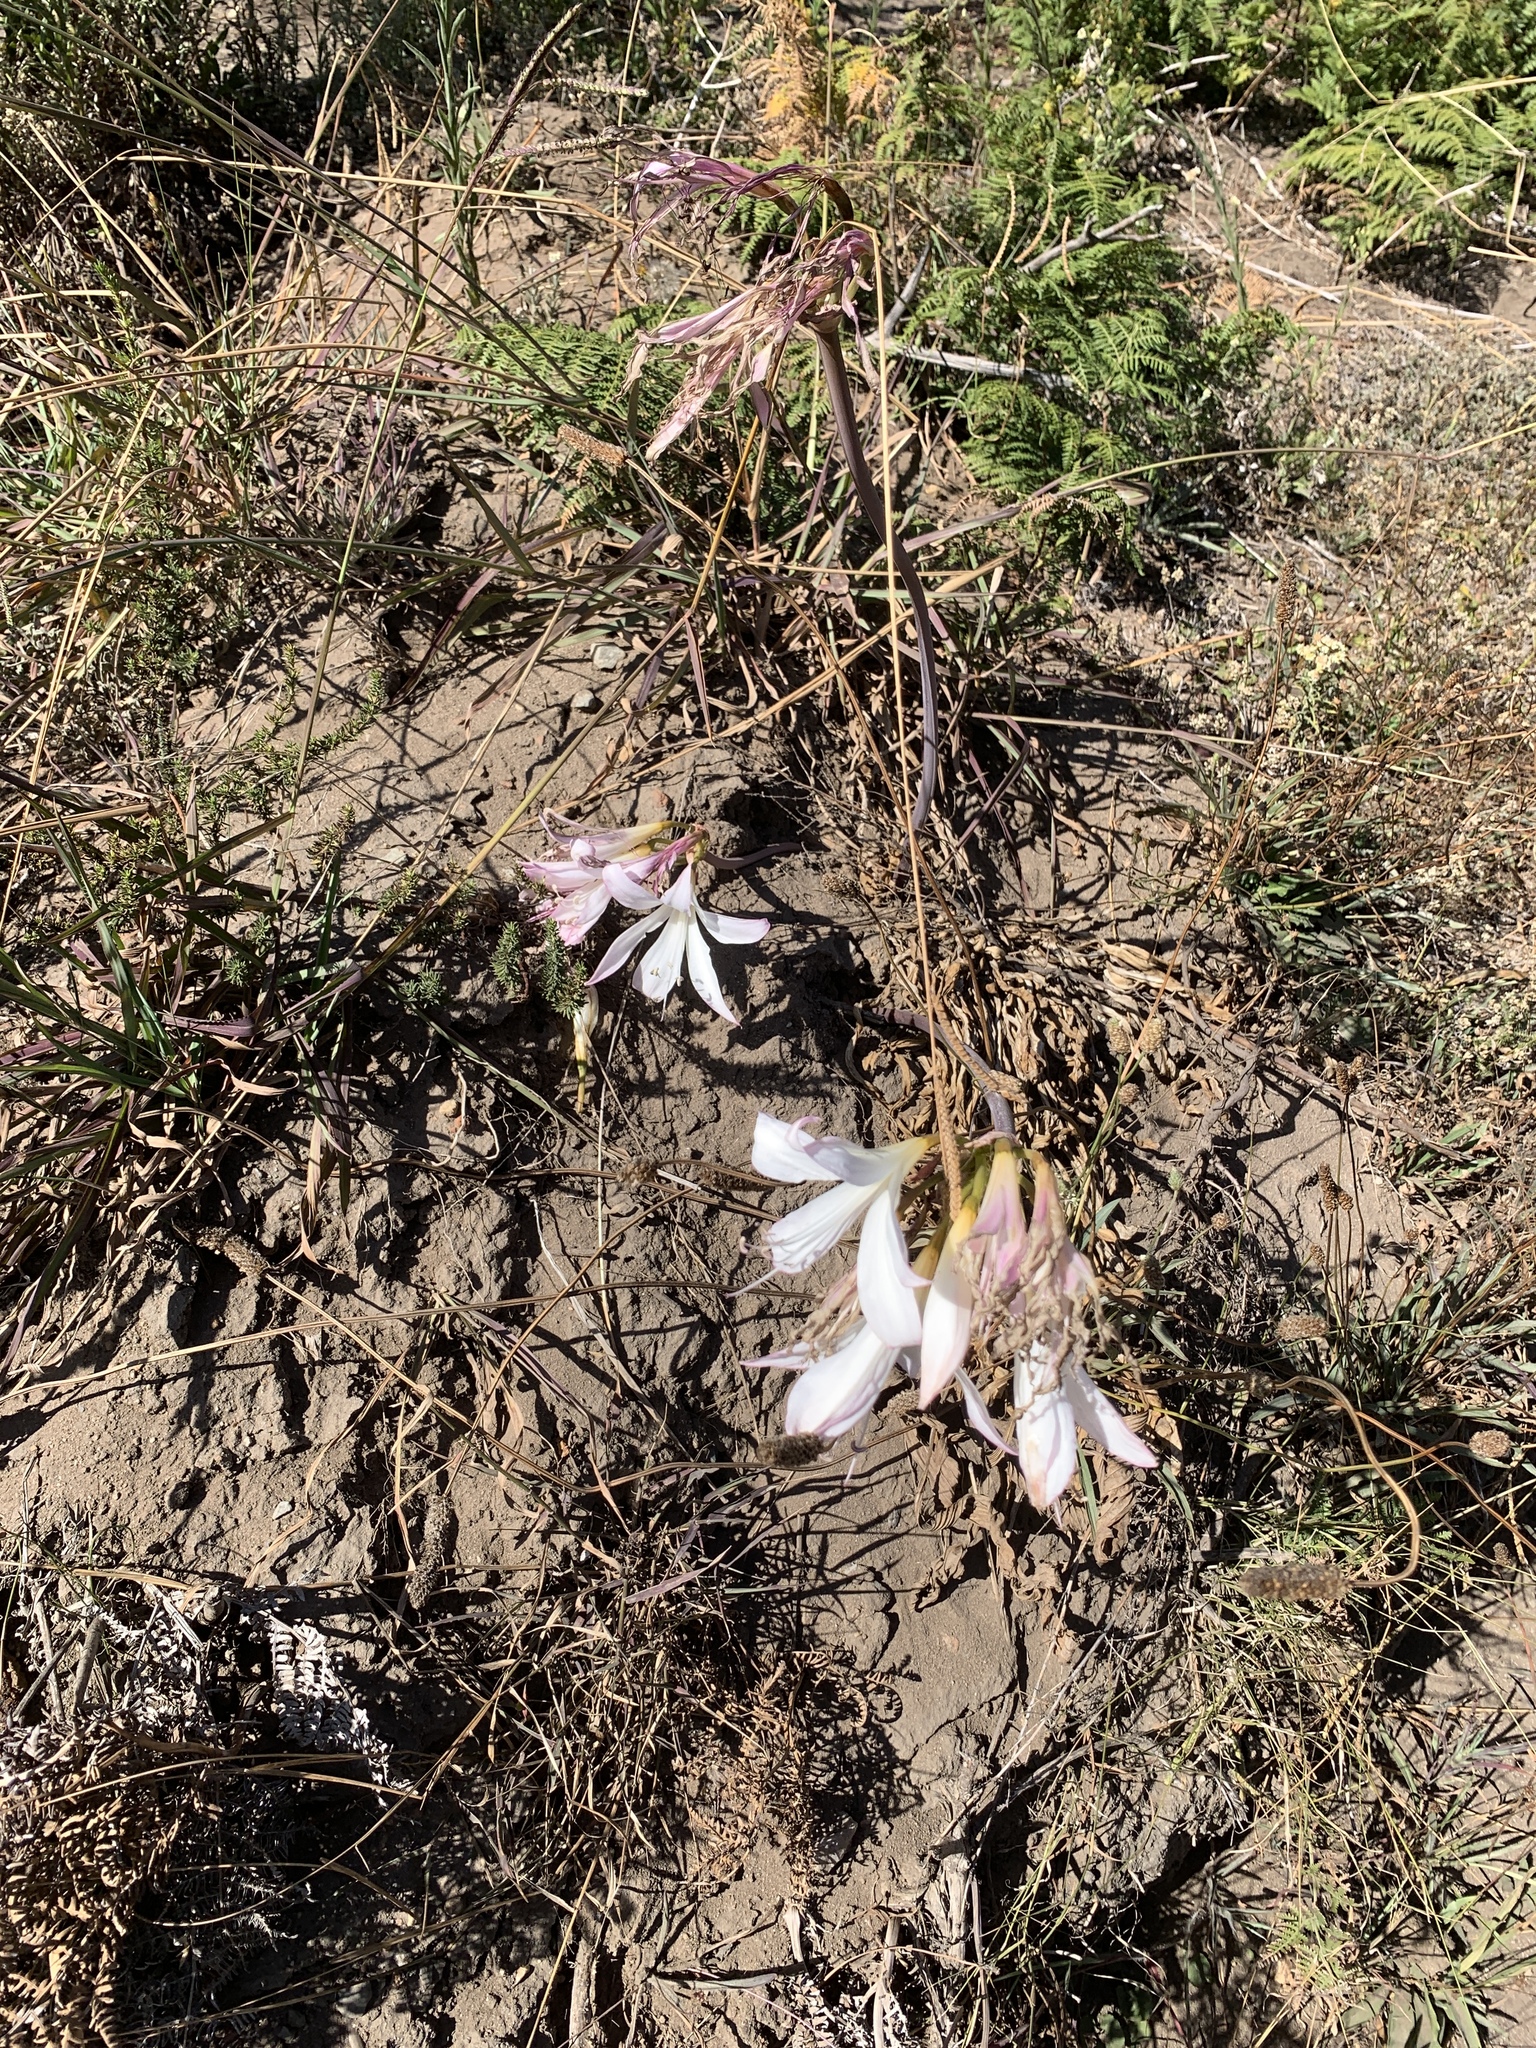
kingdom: Plantae
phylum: Tracheophyta
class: Liliopsida
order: Asparagales
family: Amaryllidaceae
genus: Amaryllis
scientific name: Amaryllis belladonna
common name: Jersey lily
